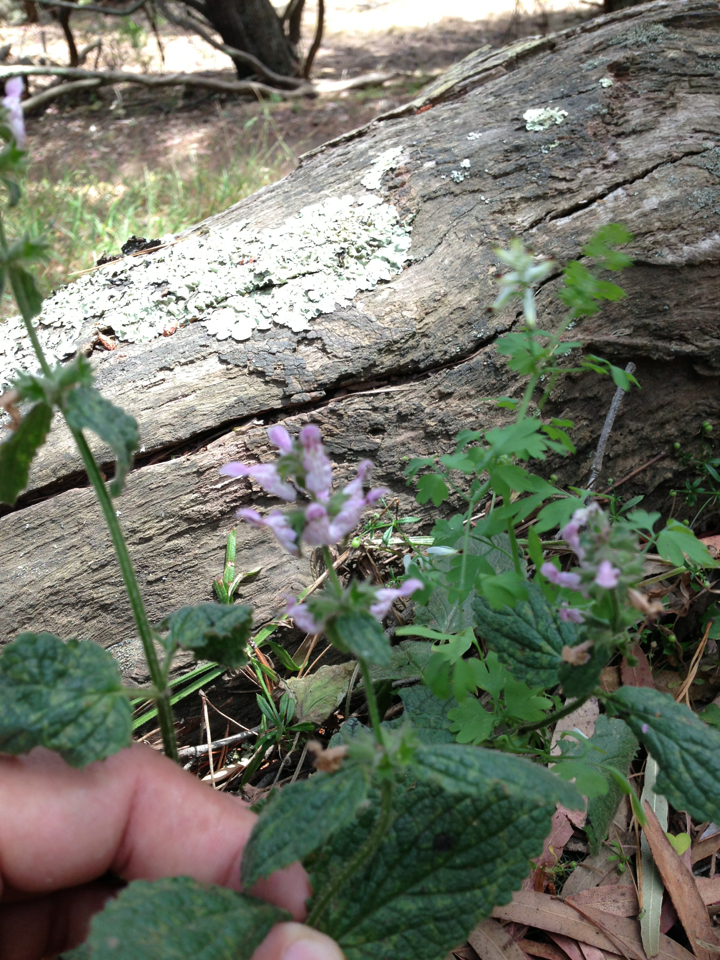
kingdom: Plantae
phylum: Tracheophyta
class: Magnoliopsida
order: Lamiales
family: Lamiaceae
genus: Stachys
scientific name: Stachys rigida
